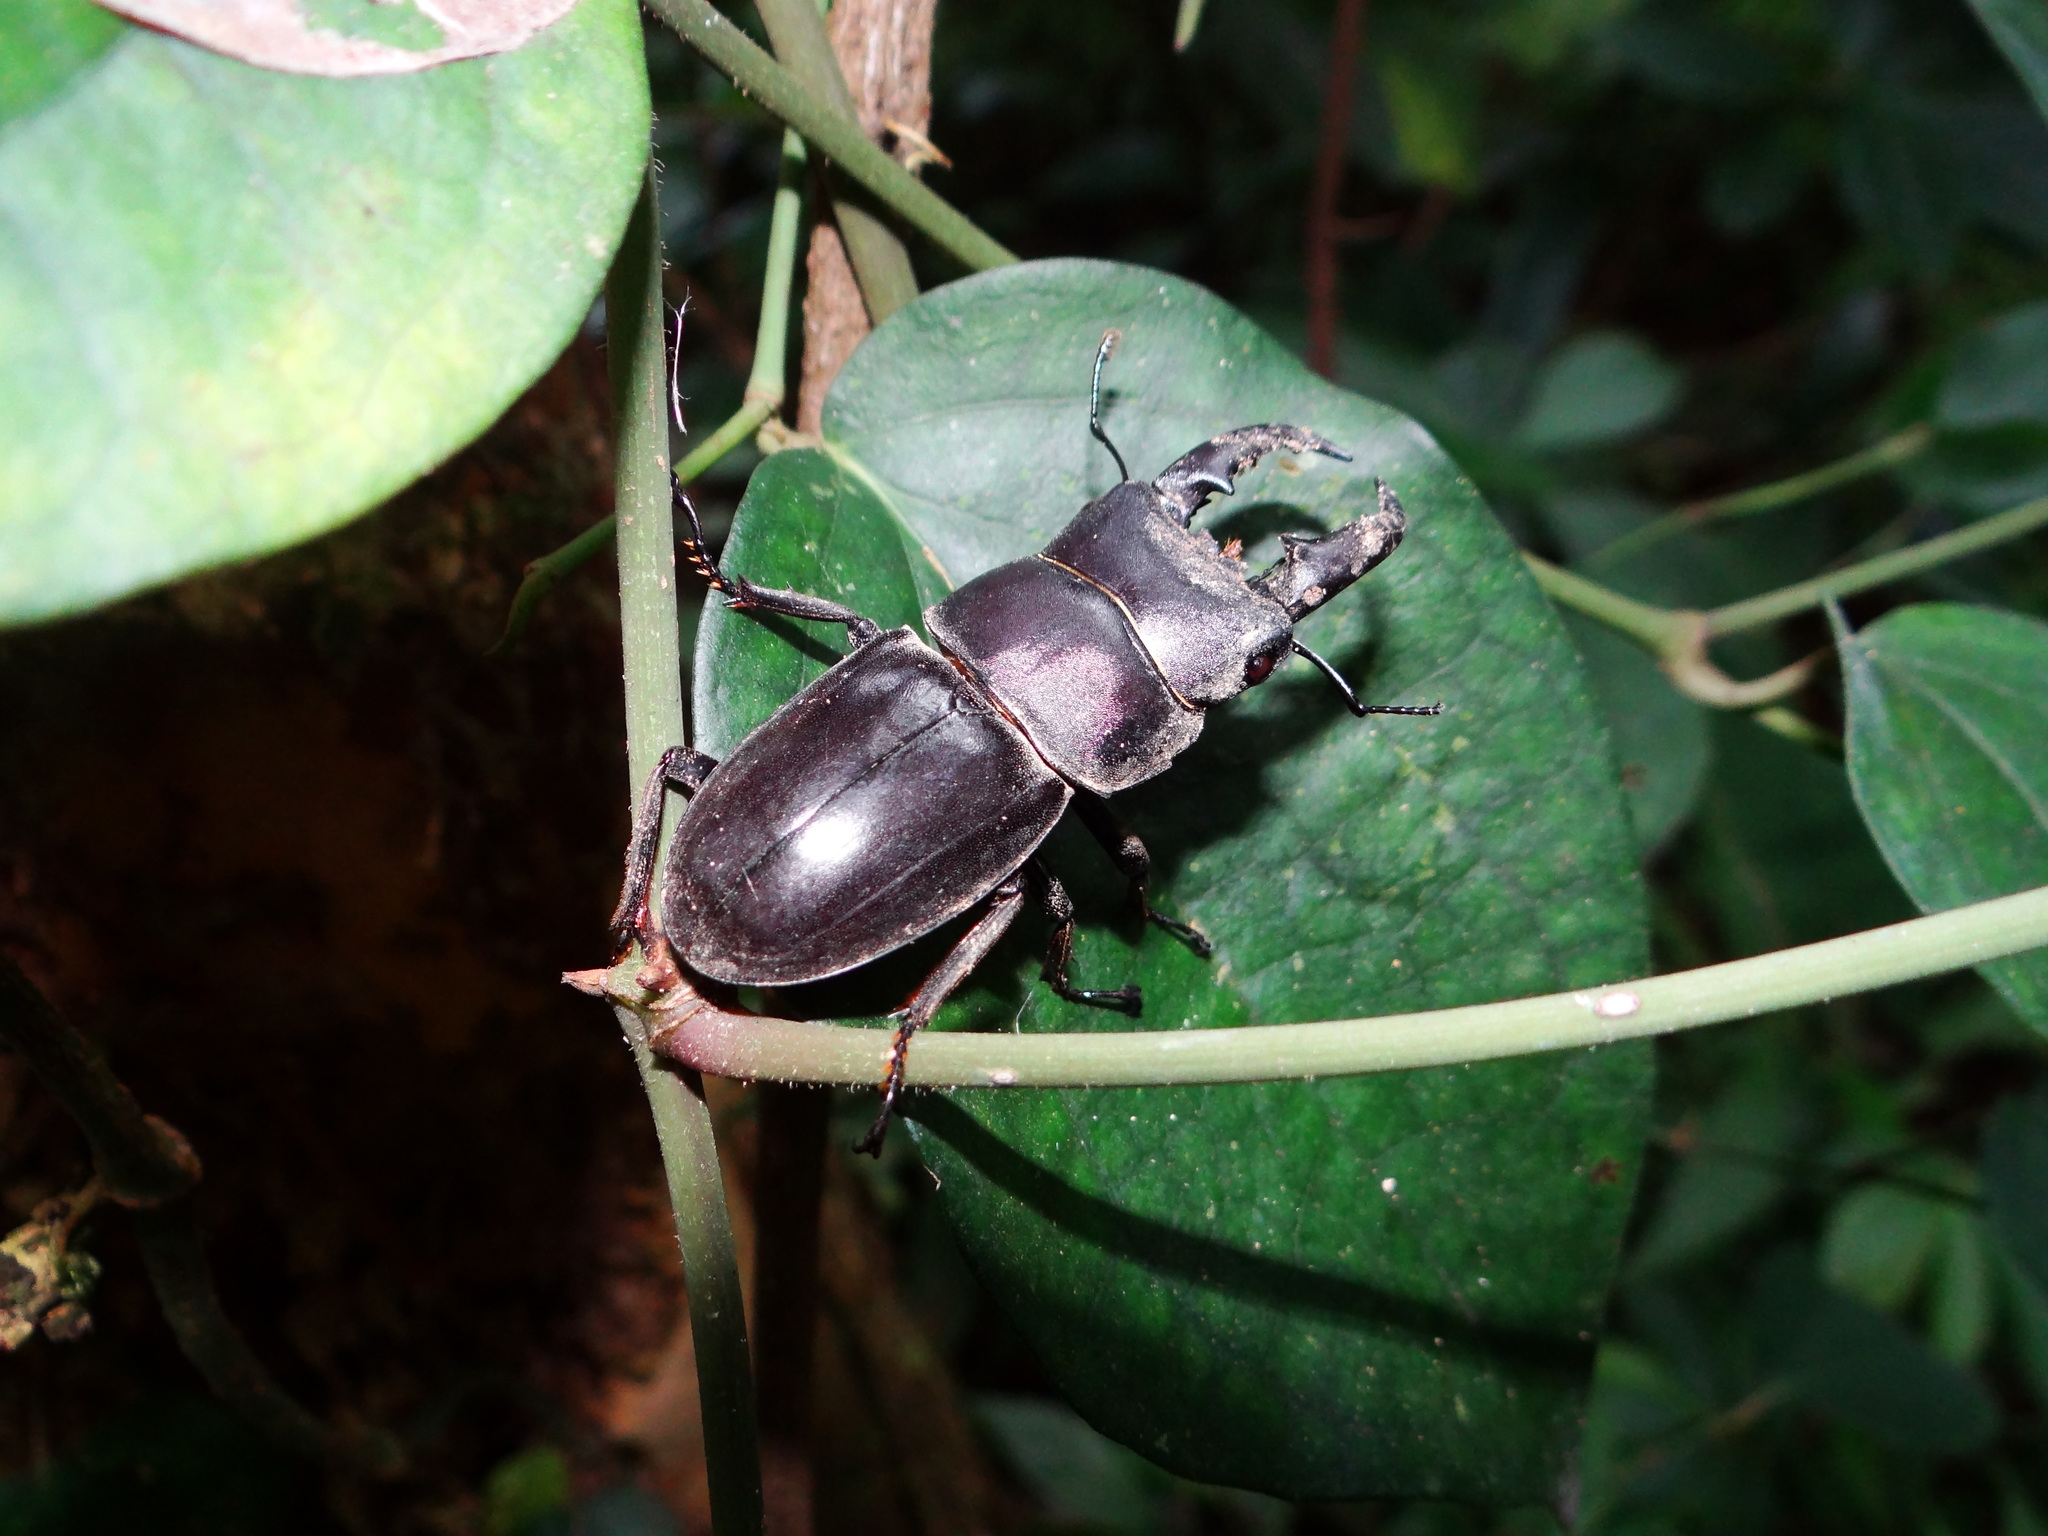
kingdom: Animalia
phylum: Arthropoda
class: Insecta
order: Coleoptera
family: Lucanidae
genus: Serrognathus
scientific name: Serrognathus titanus
